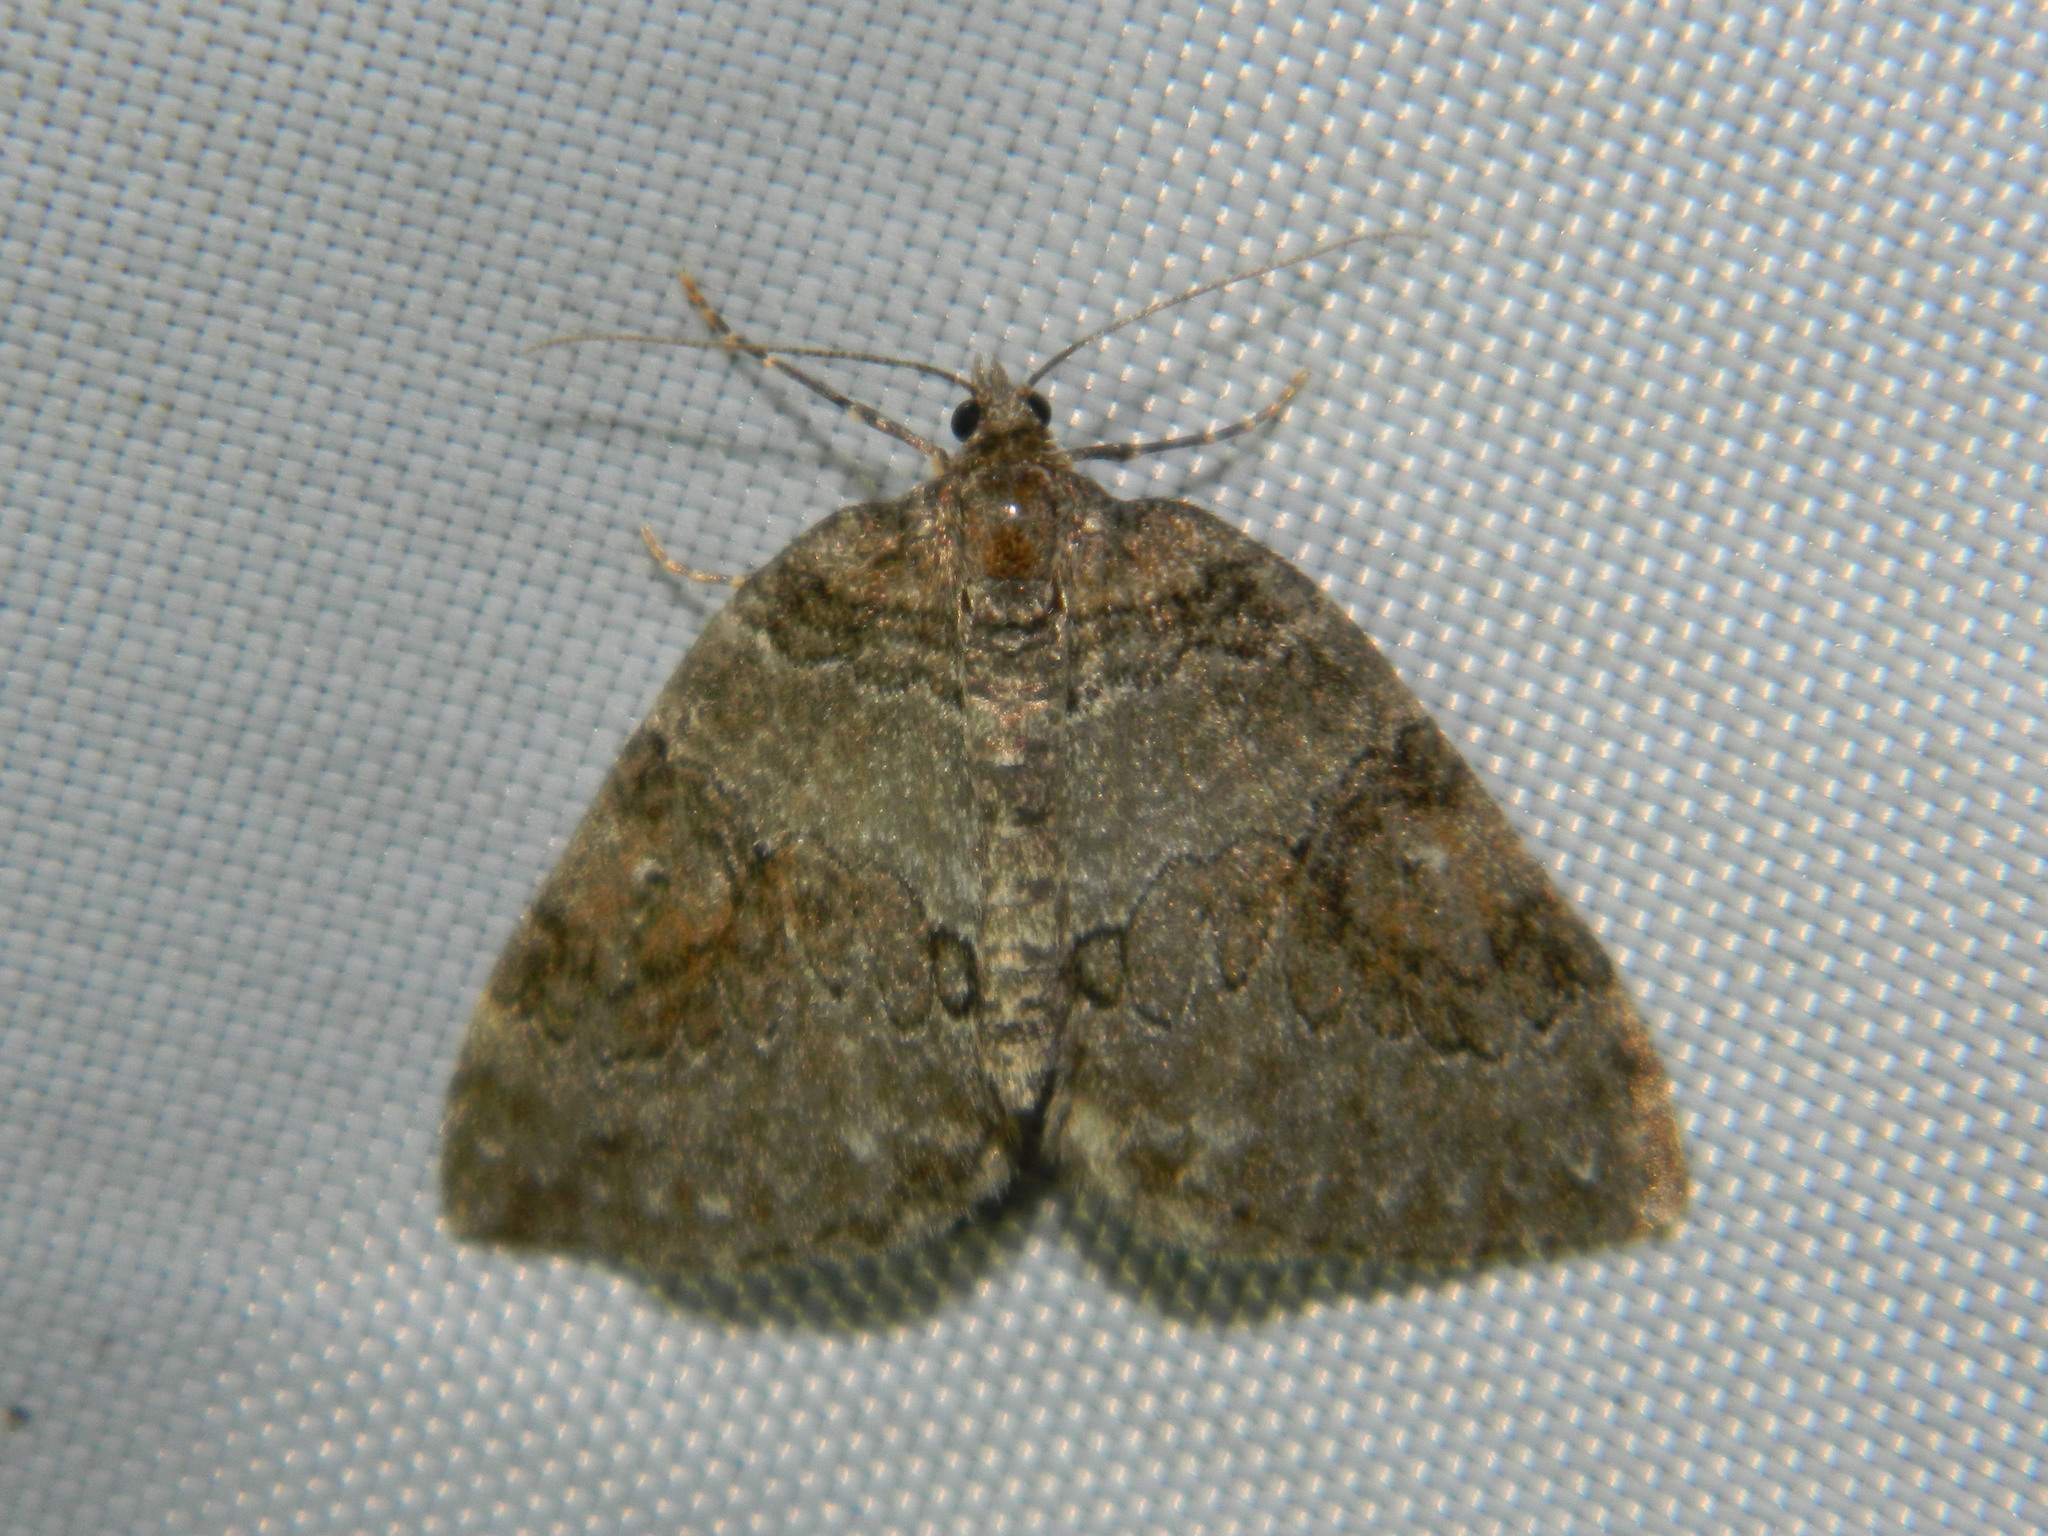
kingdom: Animalia
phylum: Arthropoda
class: Insecta
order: Lepidoptera
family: Geometridae
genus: Plemyria
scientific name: Plemyria georgii
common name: George's carpet moth
